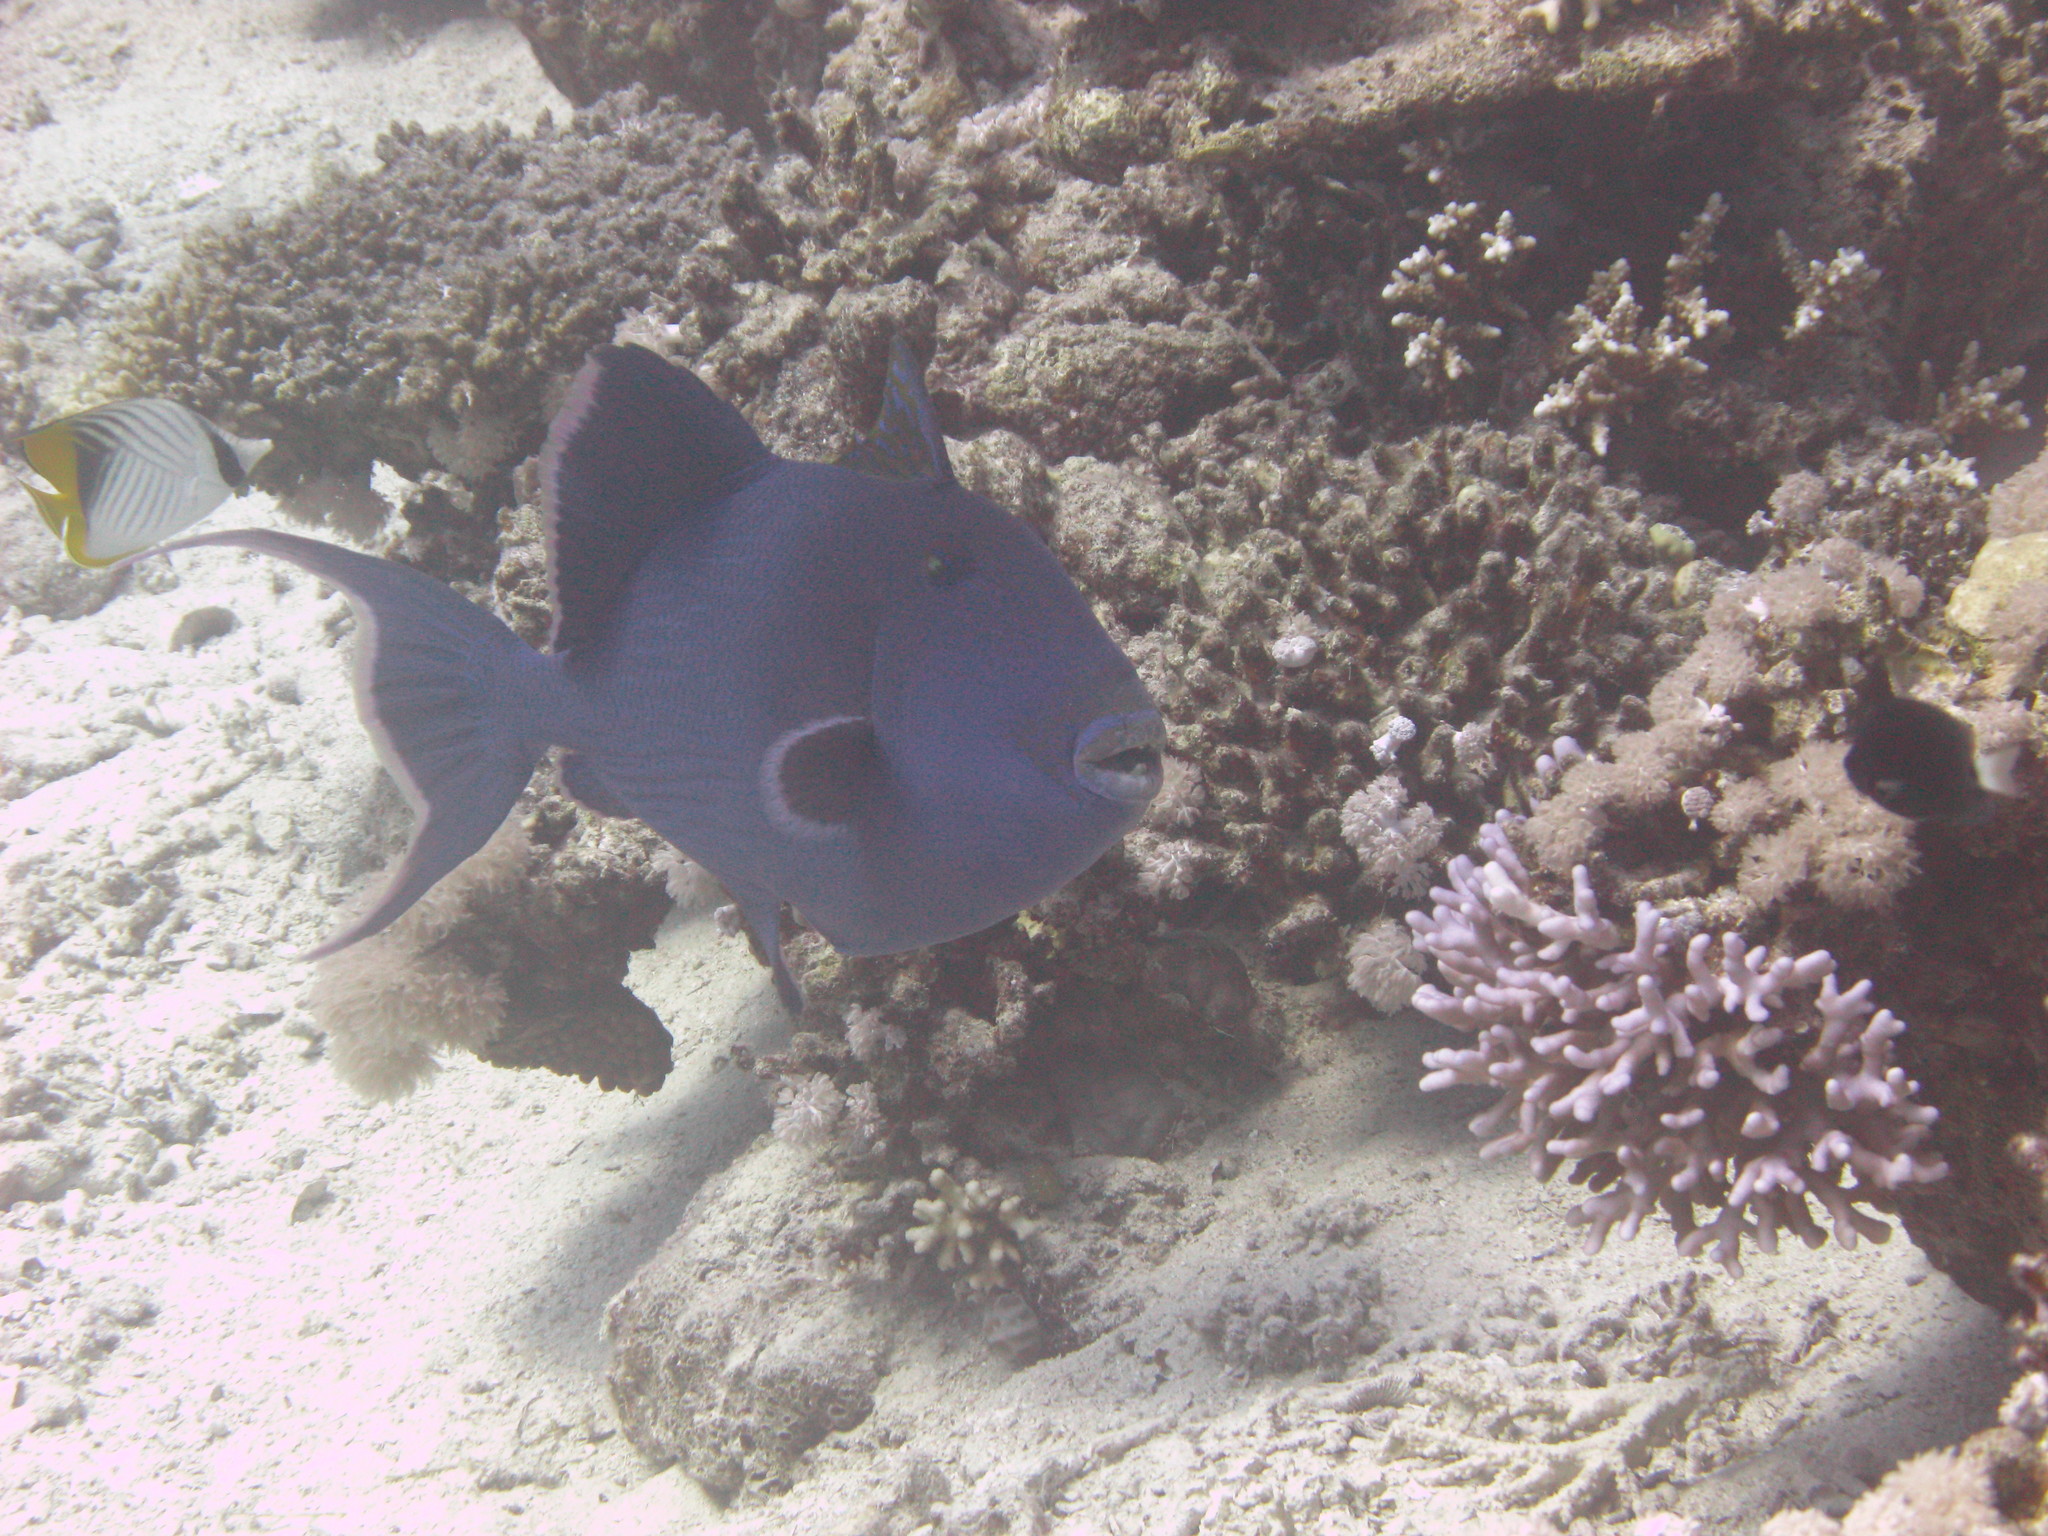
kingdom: Animalia
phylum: Chordata
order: Tetraodontiformes
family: Balistidae
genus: Pseudobalistes
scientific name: Pseudobalistes fuscus
